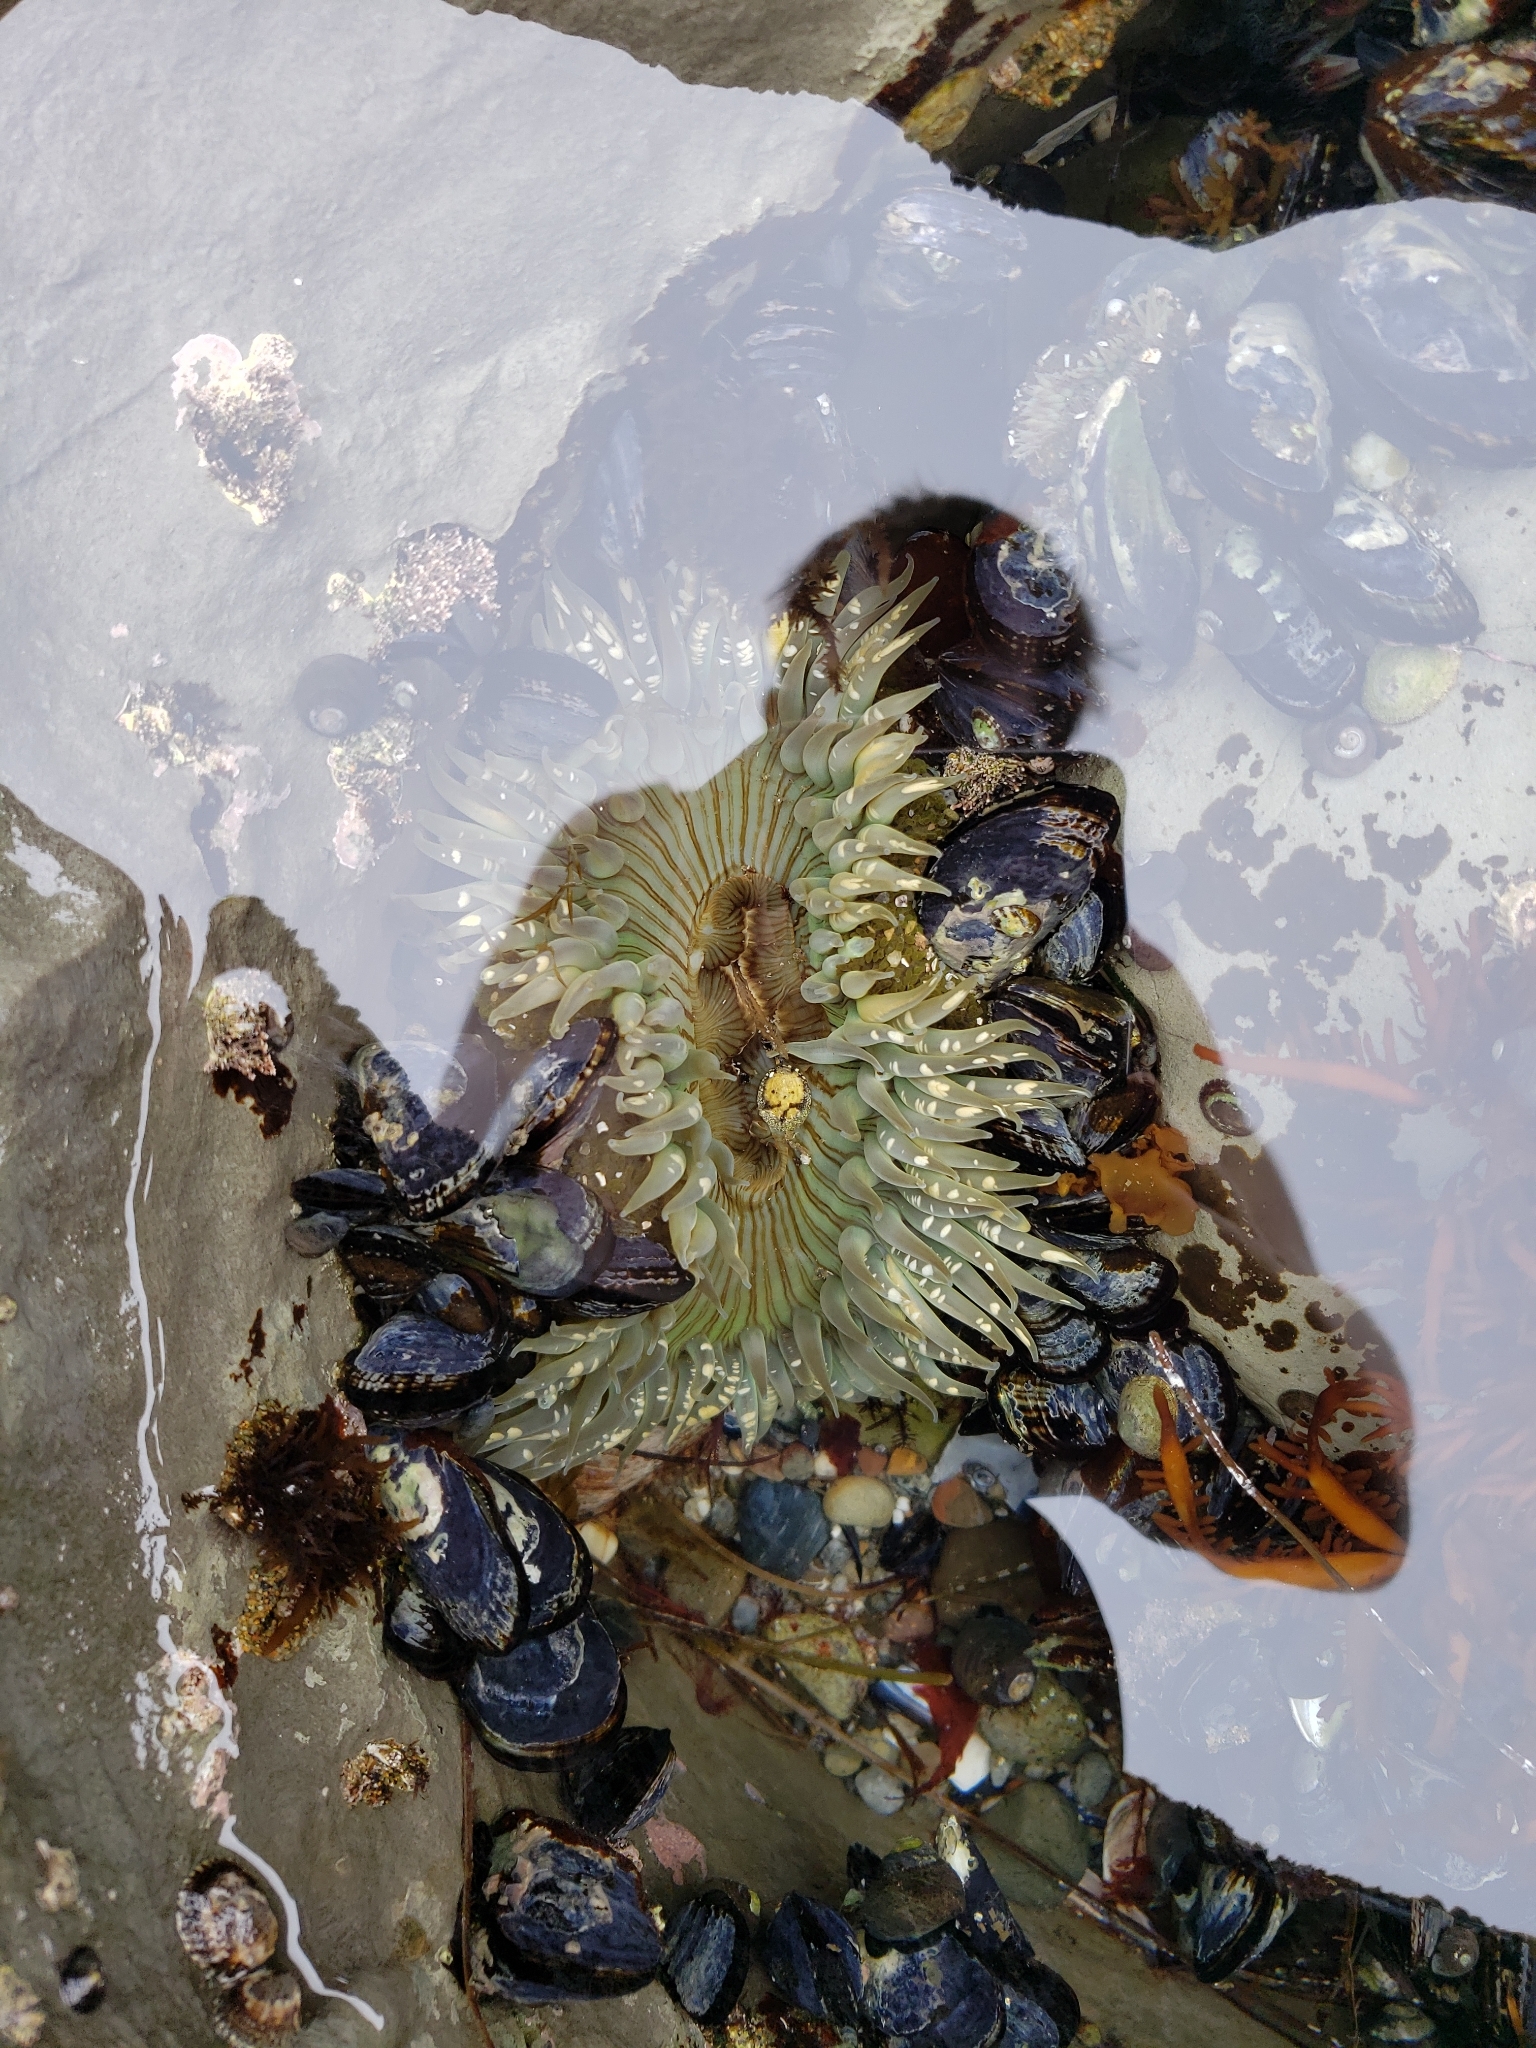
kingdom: Animalia
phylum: Cnidaria
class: Anthozoa
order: Actiniaria
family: Actiniidae
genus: Anthopleura
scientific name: Anthopleura sola
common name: Sun anemone
